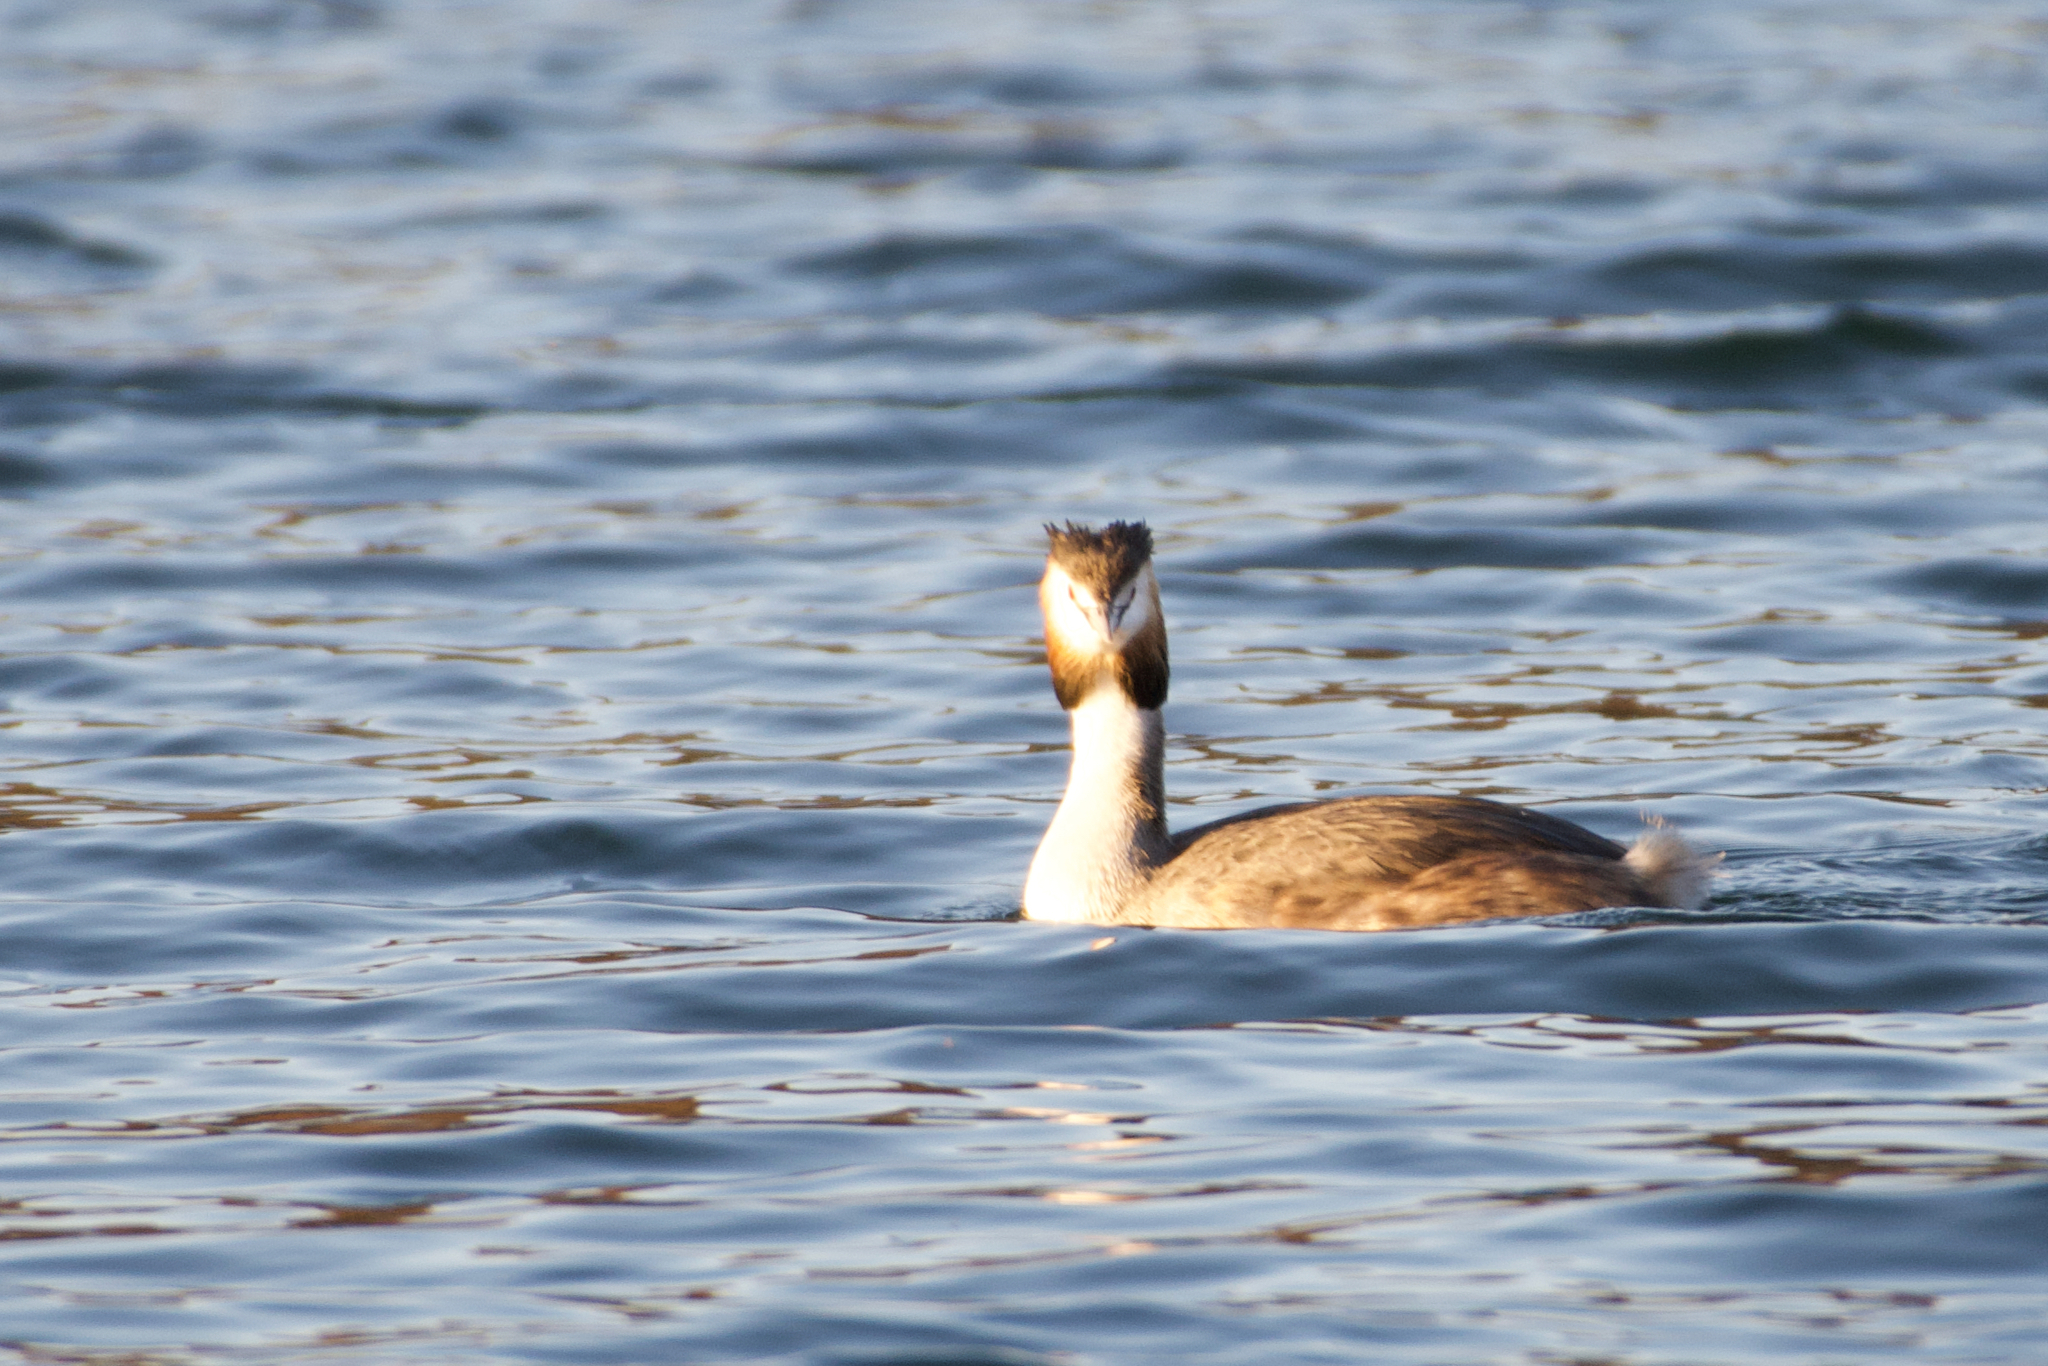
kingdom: Animalia
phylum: Chordata
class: Aves
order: Podicipediformes
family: Podicipedidae
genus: Podiceps
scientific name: Podiceps cristatus
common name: Great crested grebe
